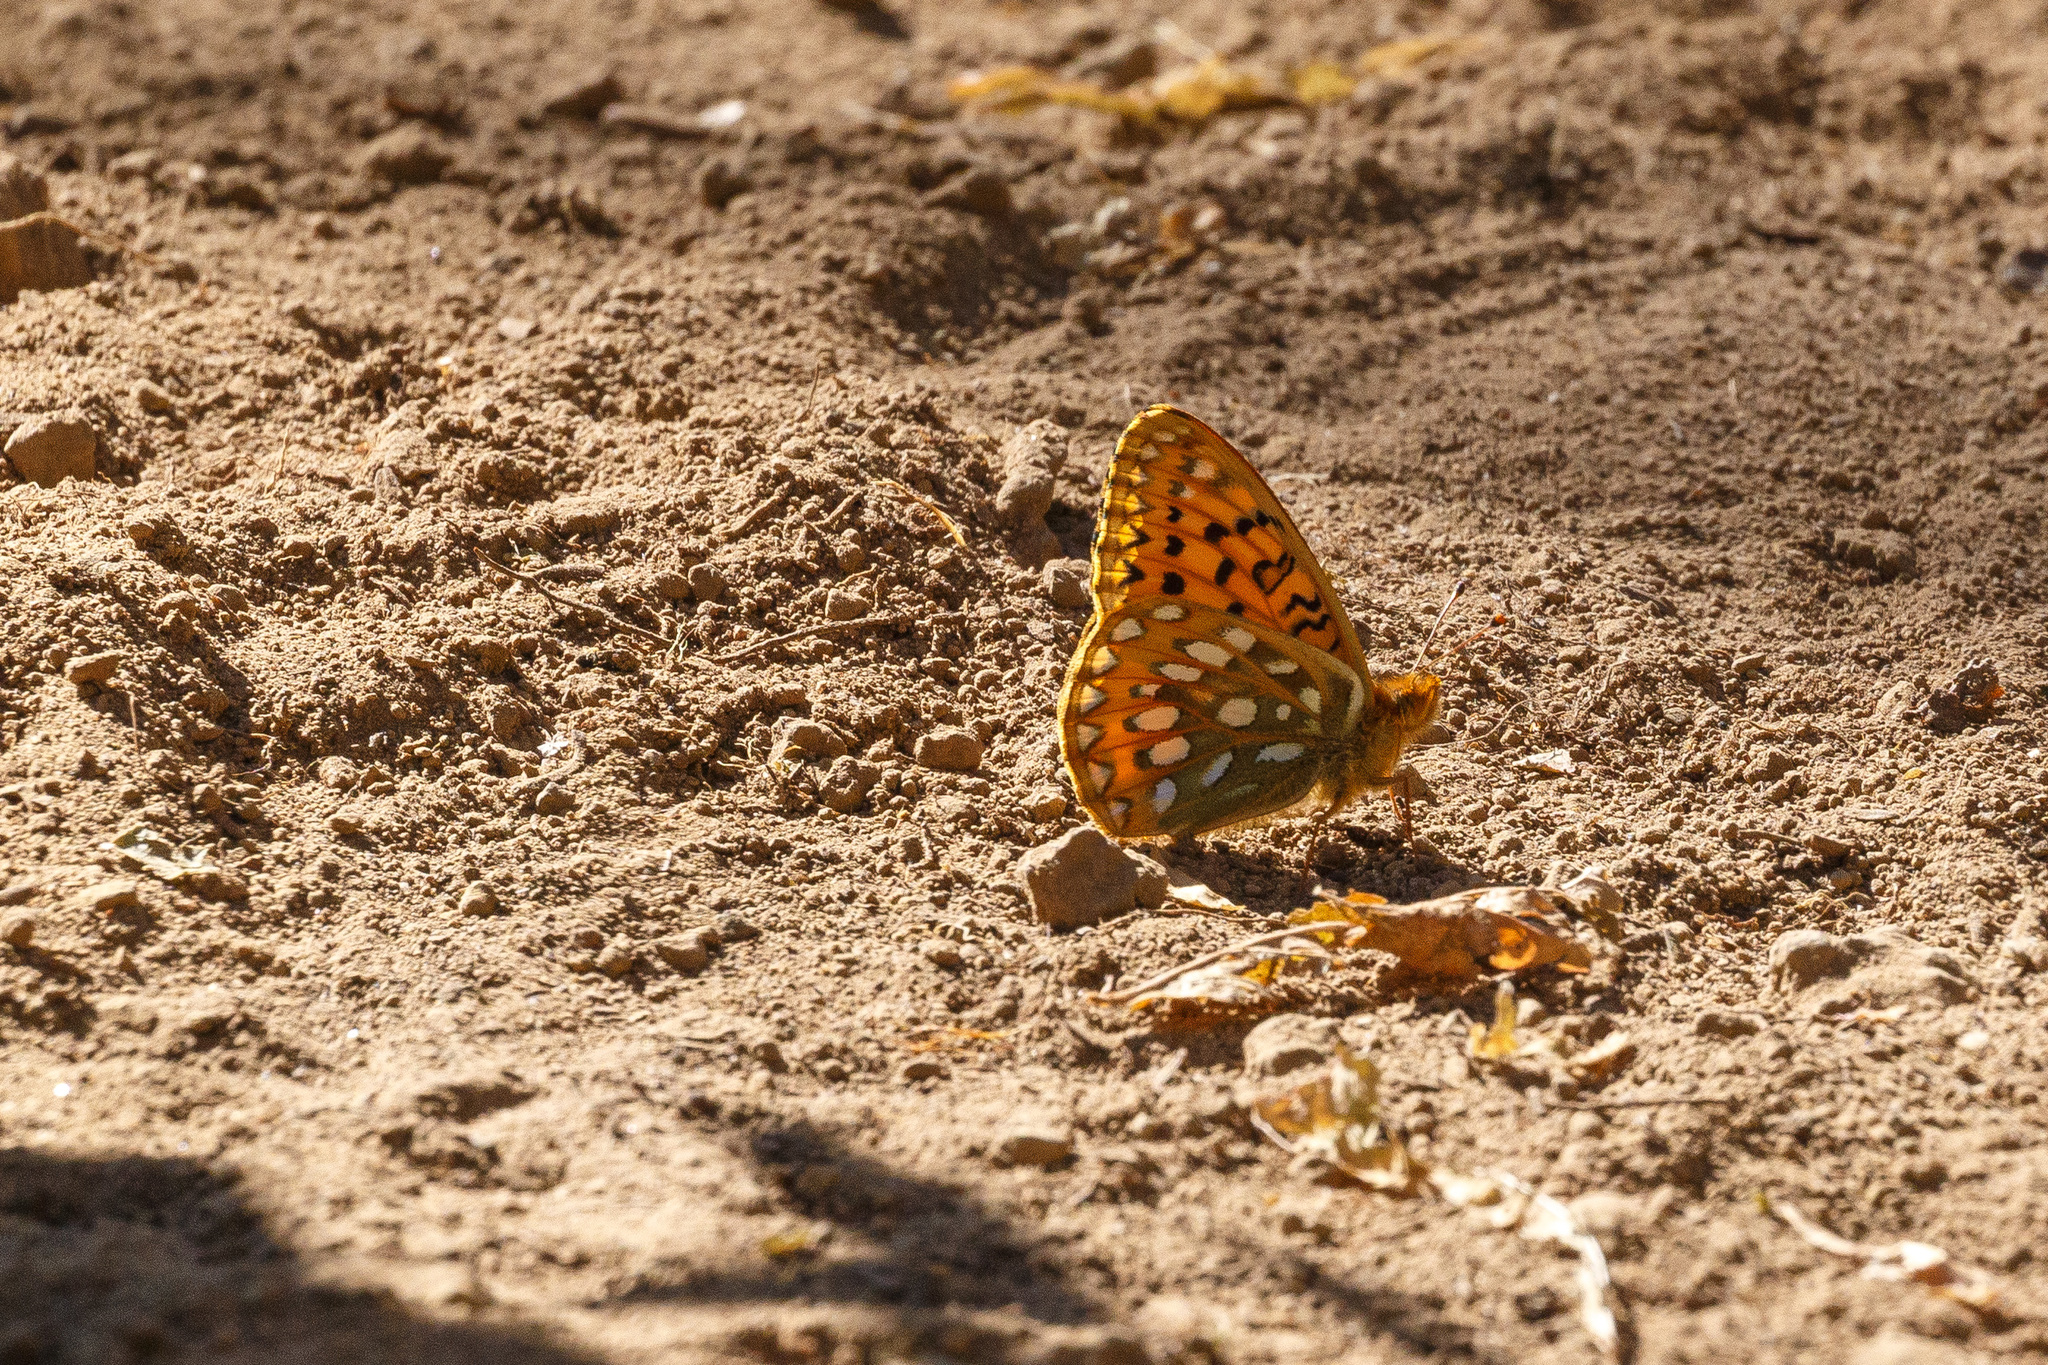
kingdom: Animalia
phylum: Arthropoda
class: Insecta
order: Lepidoptera
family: Nymphalidae
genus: Speyeria
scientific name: Speyeria mormonia
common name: Mormon fritillary
